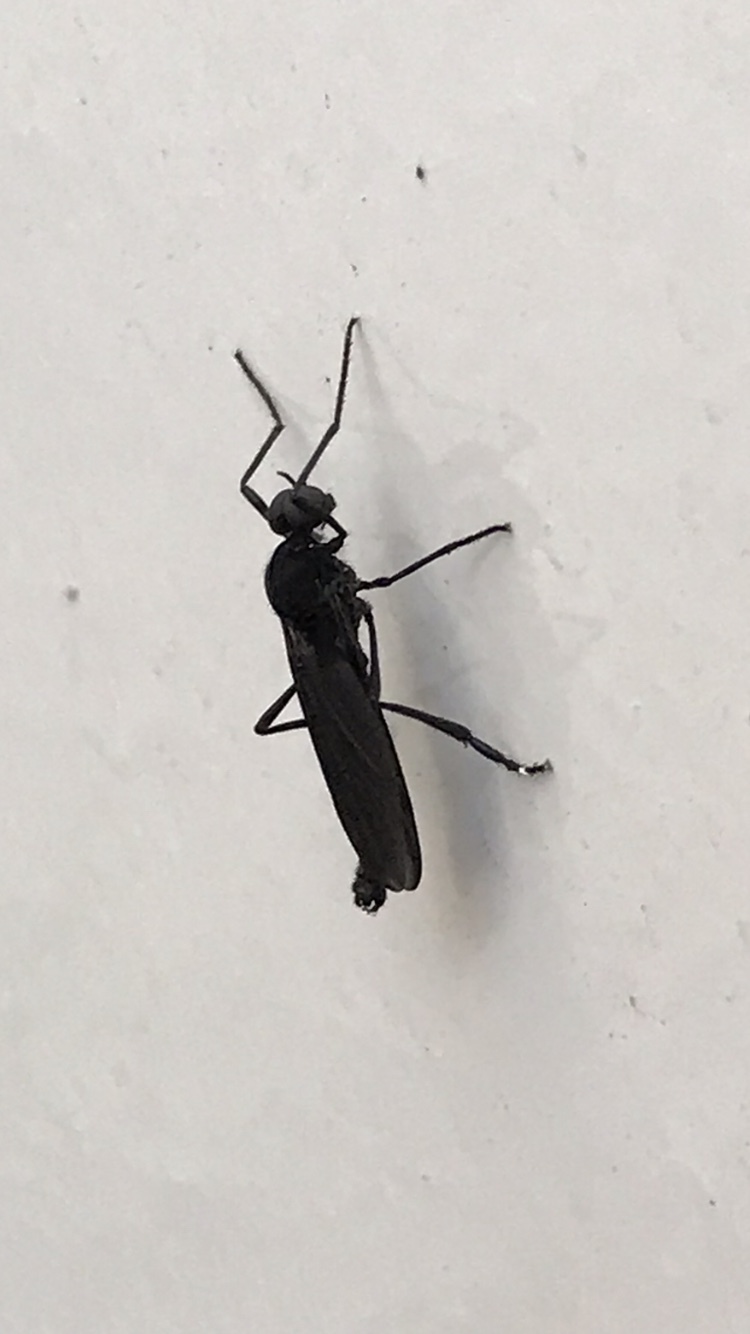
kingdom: Animalia
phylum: Arthropoda
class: Insecta
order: Diptera
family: Bibionidae
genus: Penthetria
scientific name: Penthetria heteroptera
